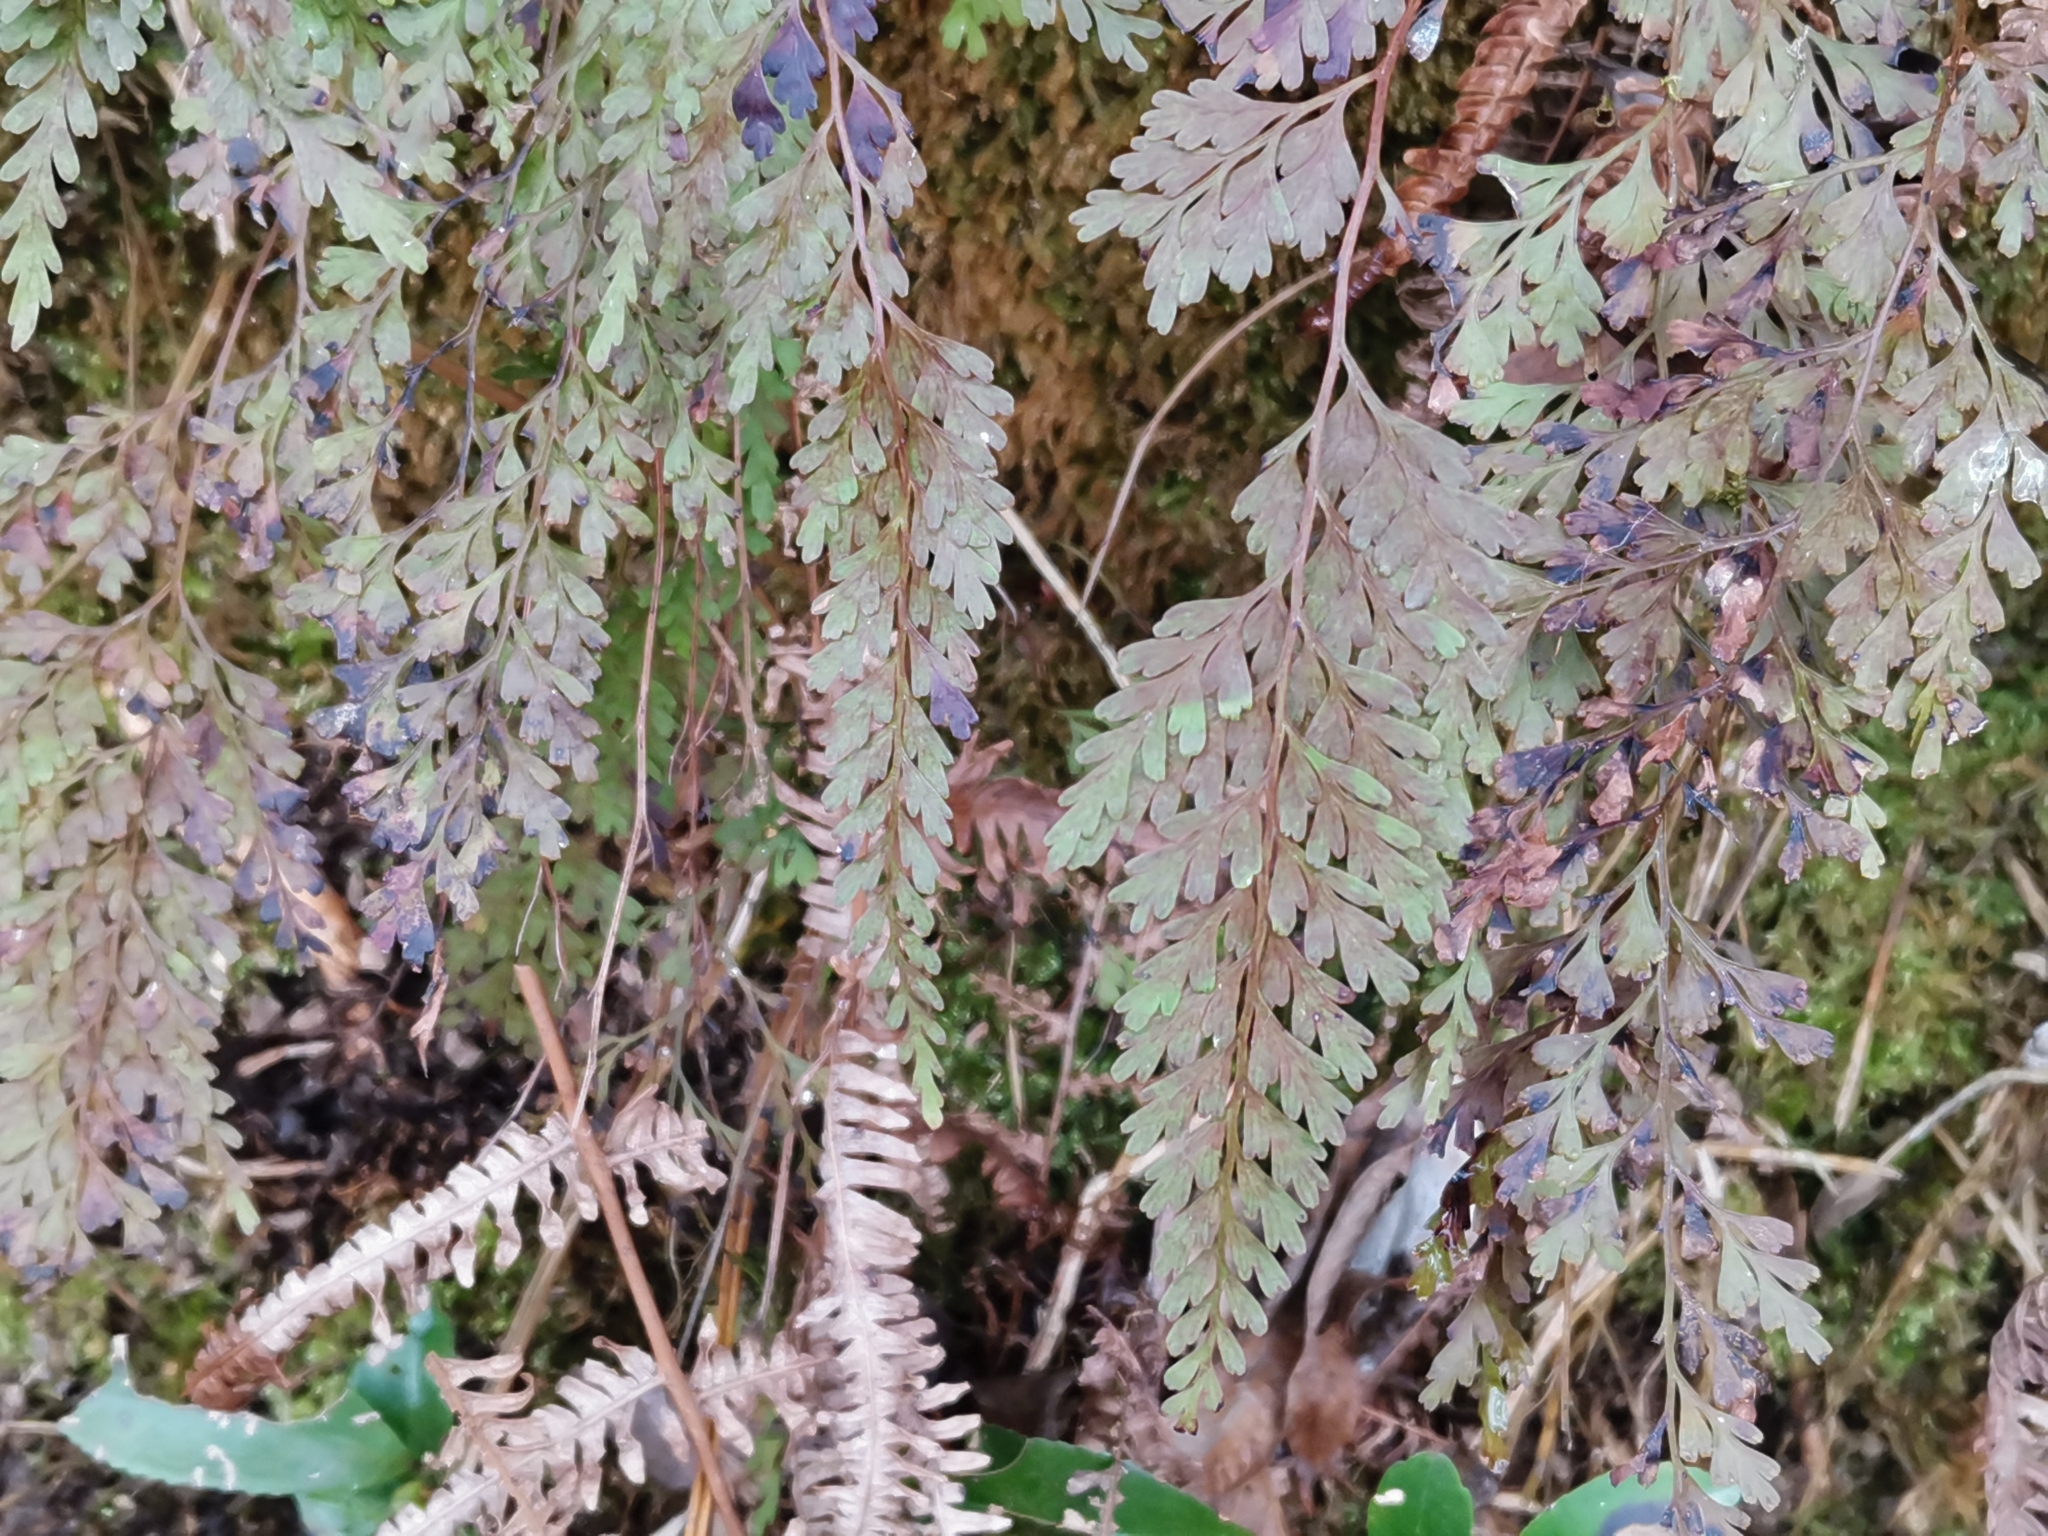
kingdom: Plantae
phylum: Tracheophyta
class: Polypodiopsida
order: Polypodiales
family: Lindsaeaceae
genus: Odontosoria
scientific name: Odontosoria chinensis
